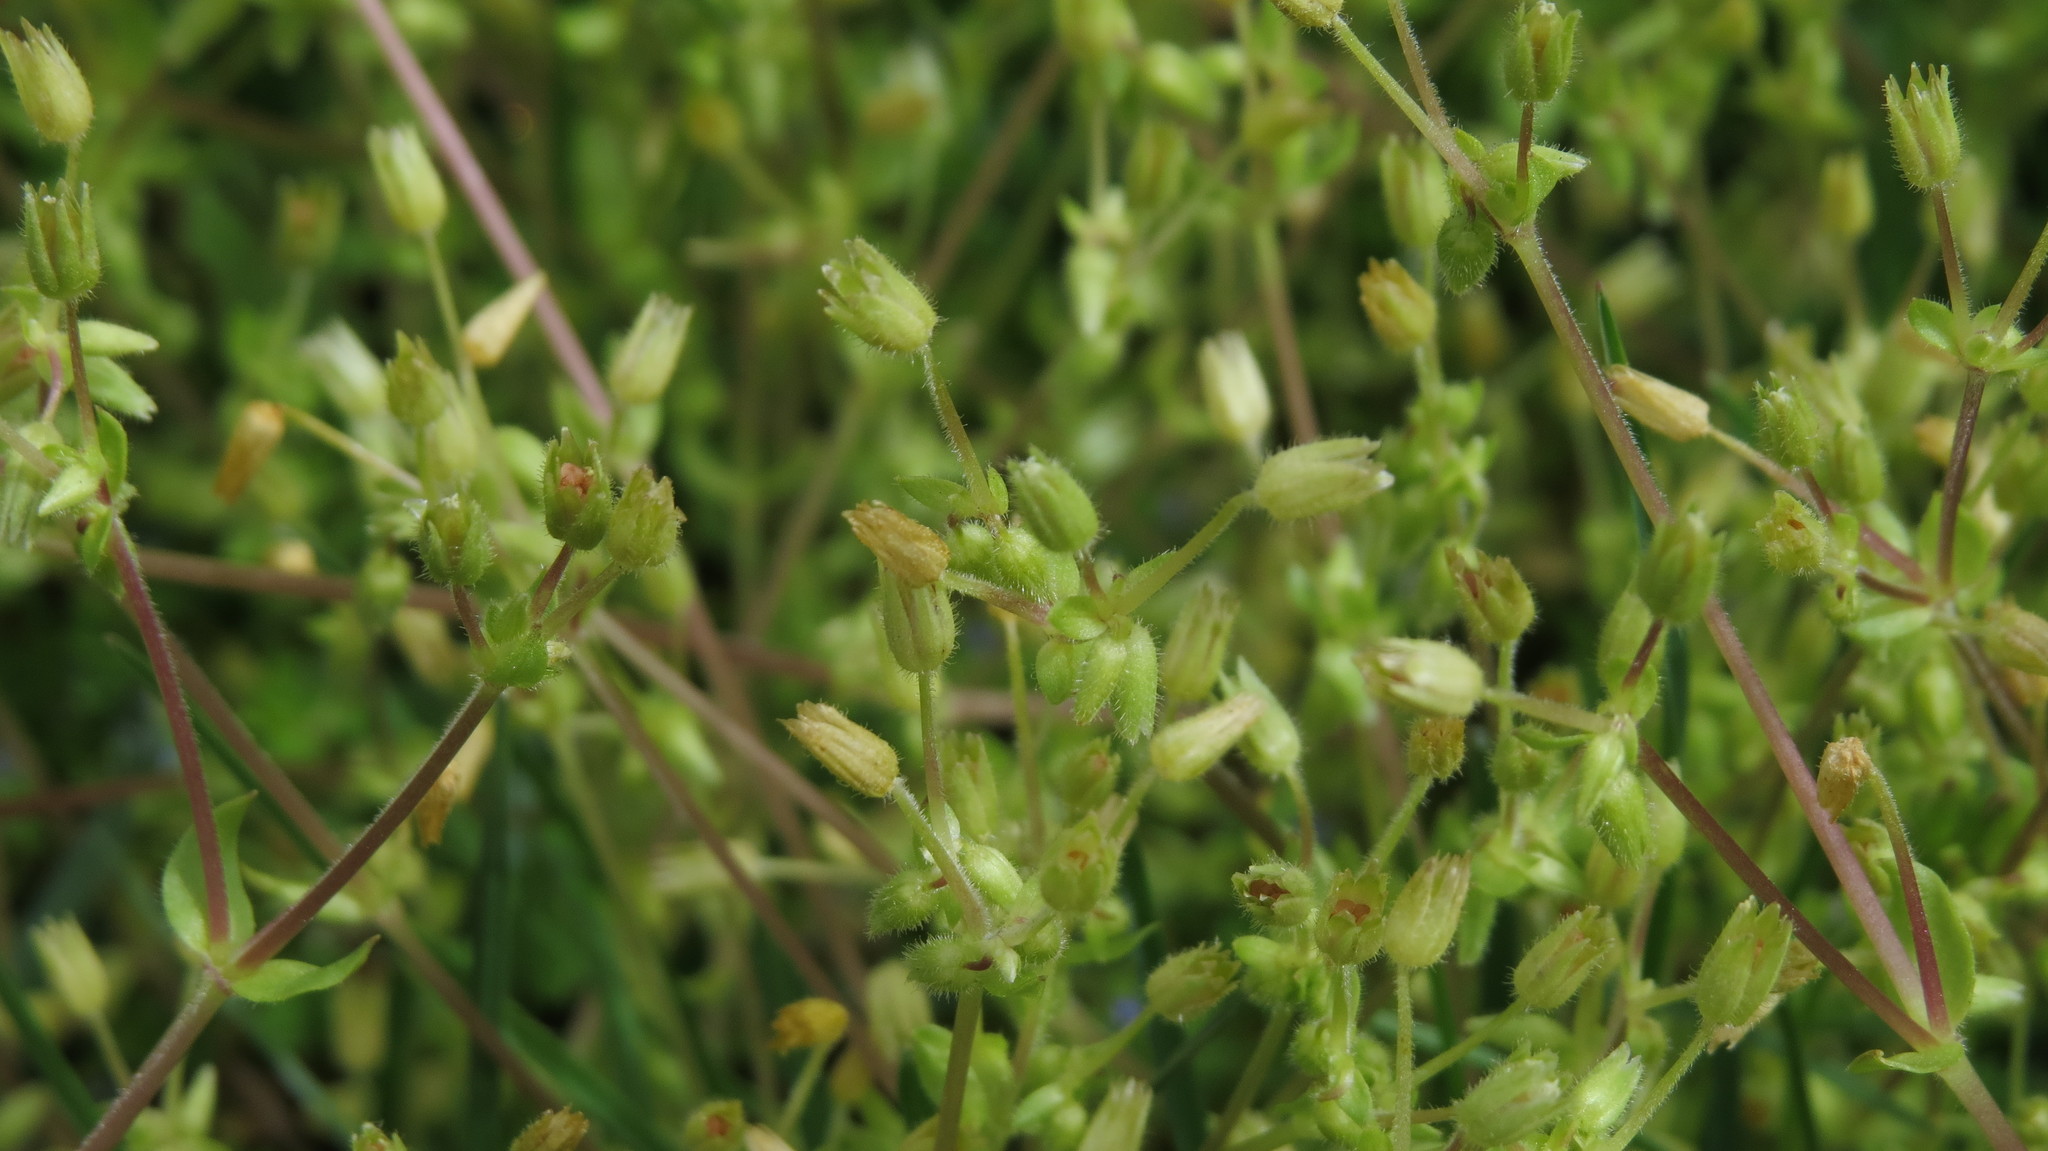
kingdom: Plantae
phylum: Tracheophyta
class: Magnoliopsida
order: Caryophyllales
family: Caryophyllaceae
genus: Stellaria
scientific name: Stellaria apetala
